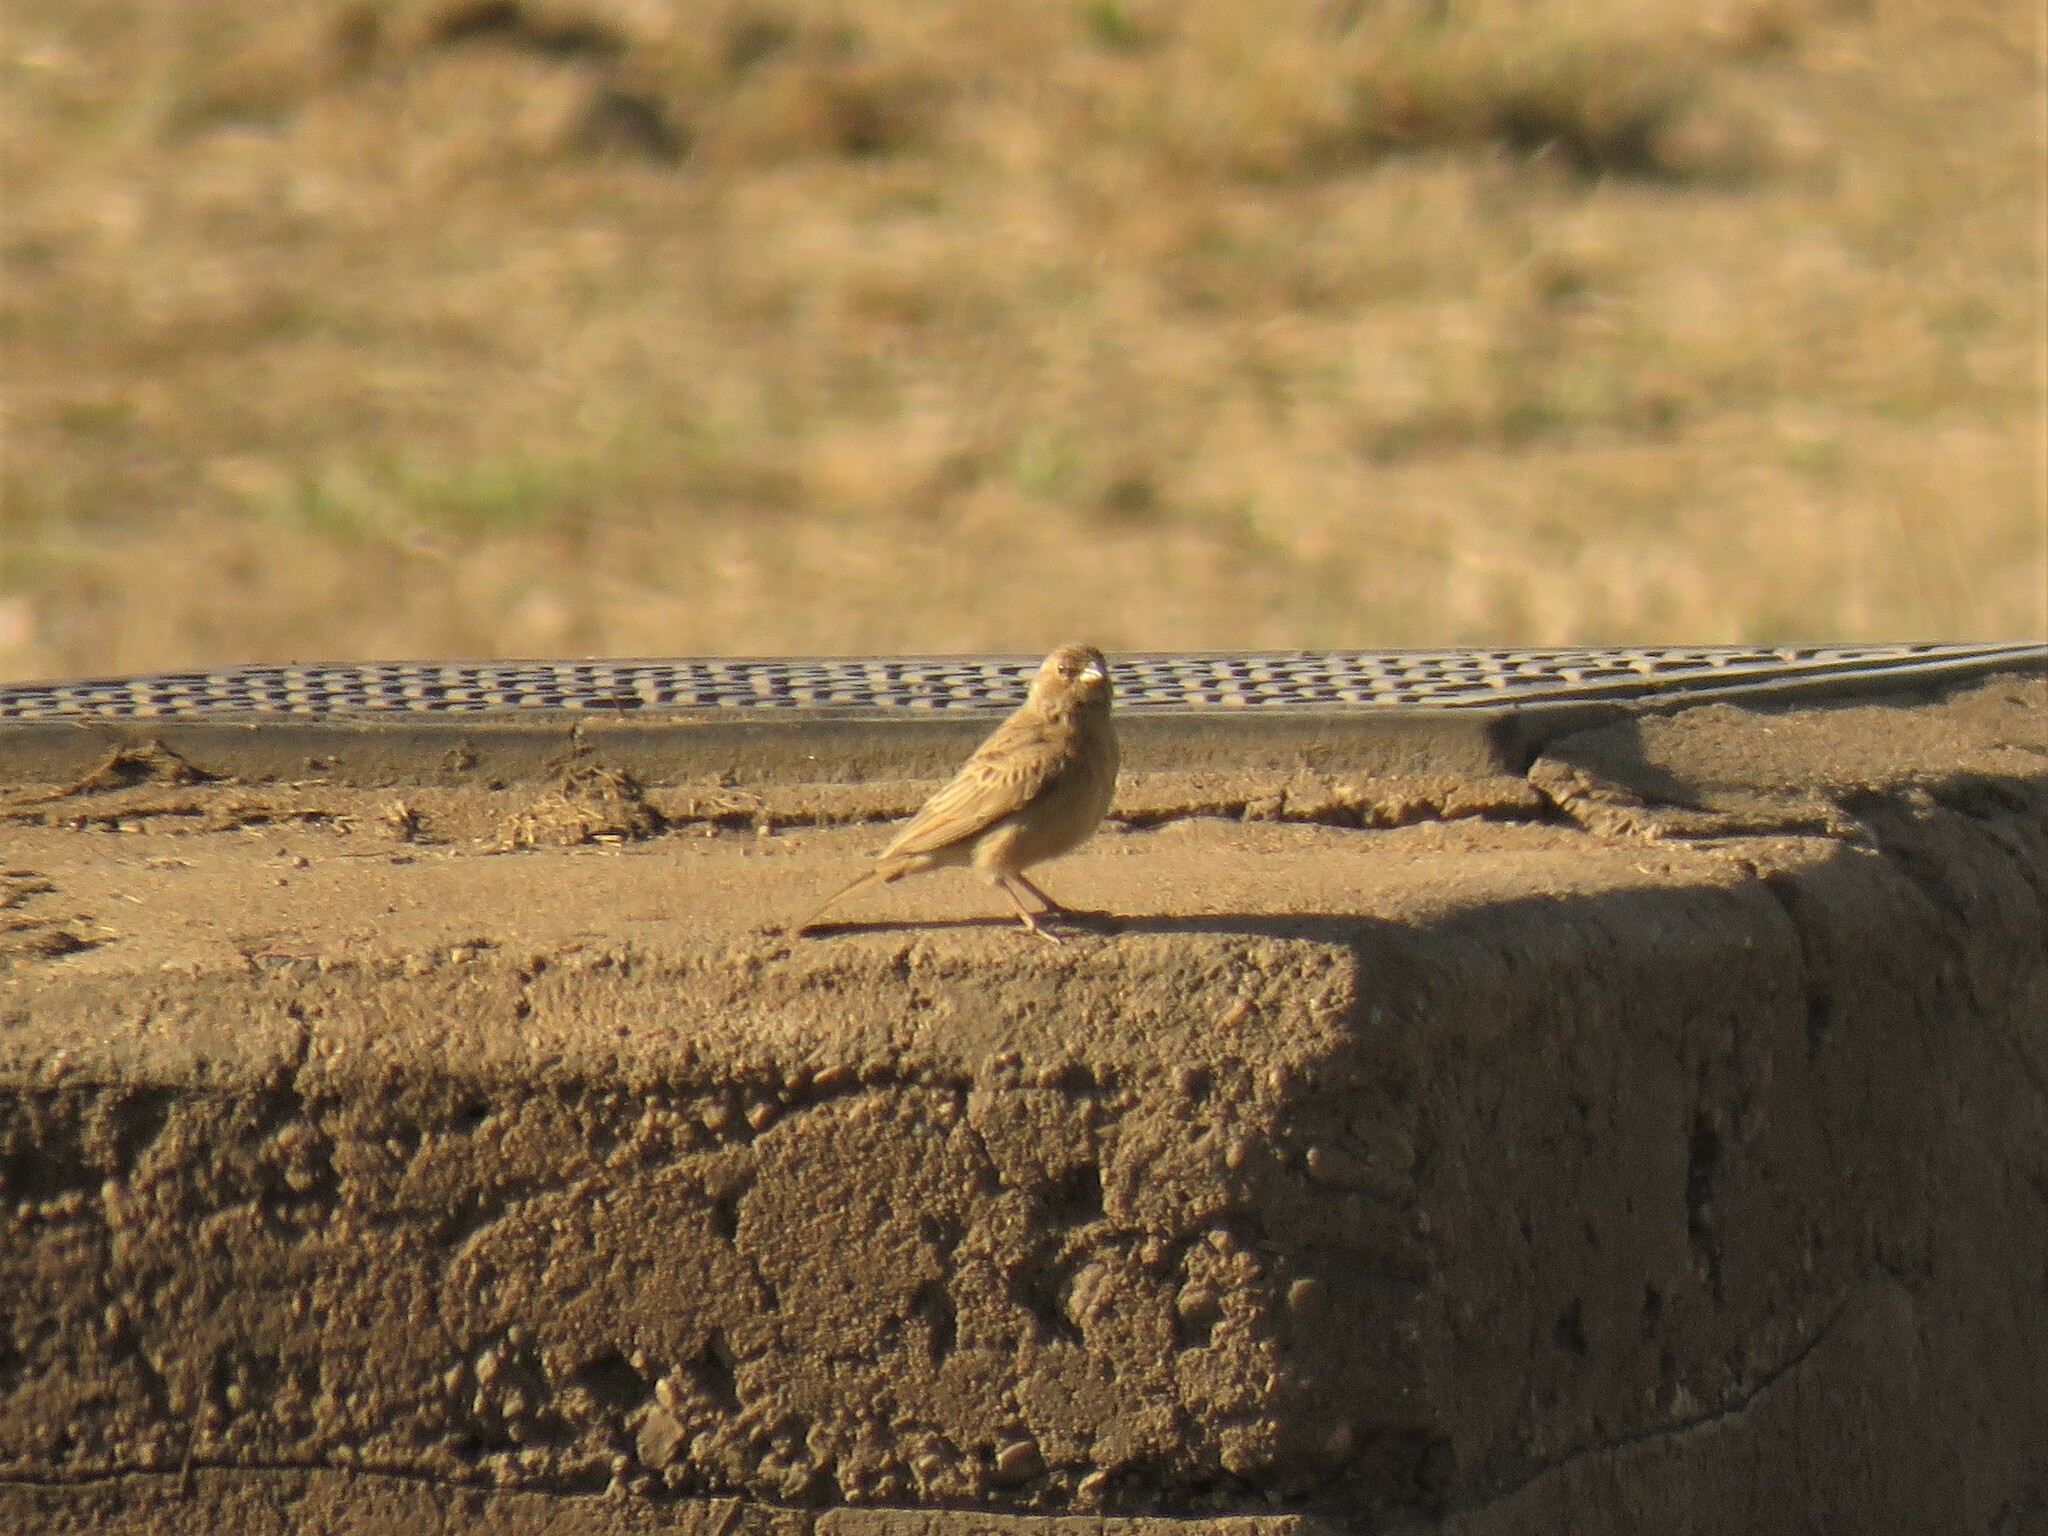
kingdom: Animalia
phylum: Chordata
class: Aves
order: Passeriformes
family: Emberizidae
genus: Emberiza
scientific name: Emberiza impetuani
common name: Lark-like bunting
